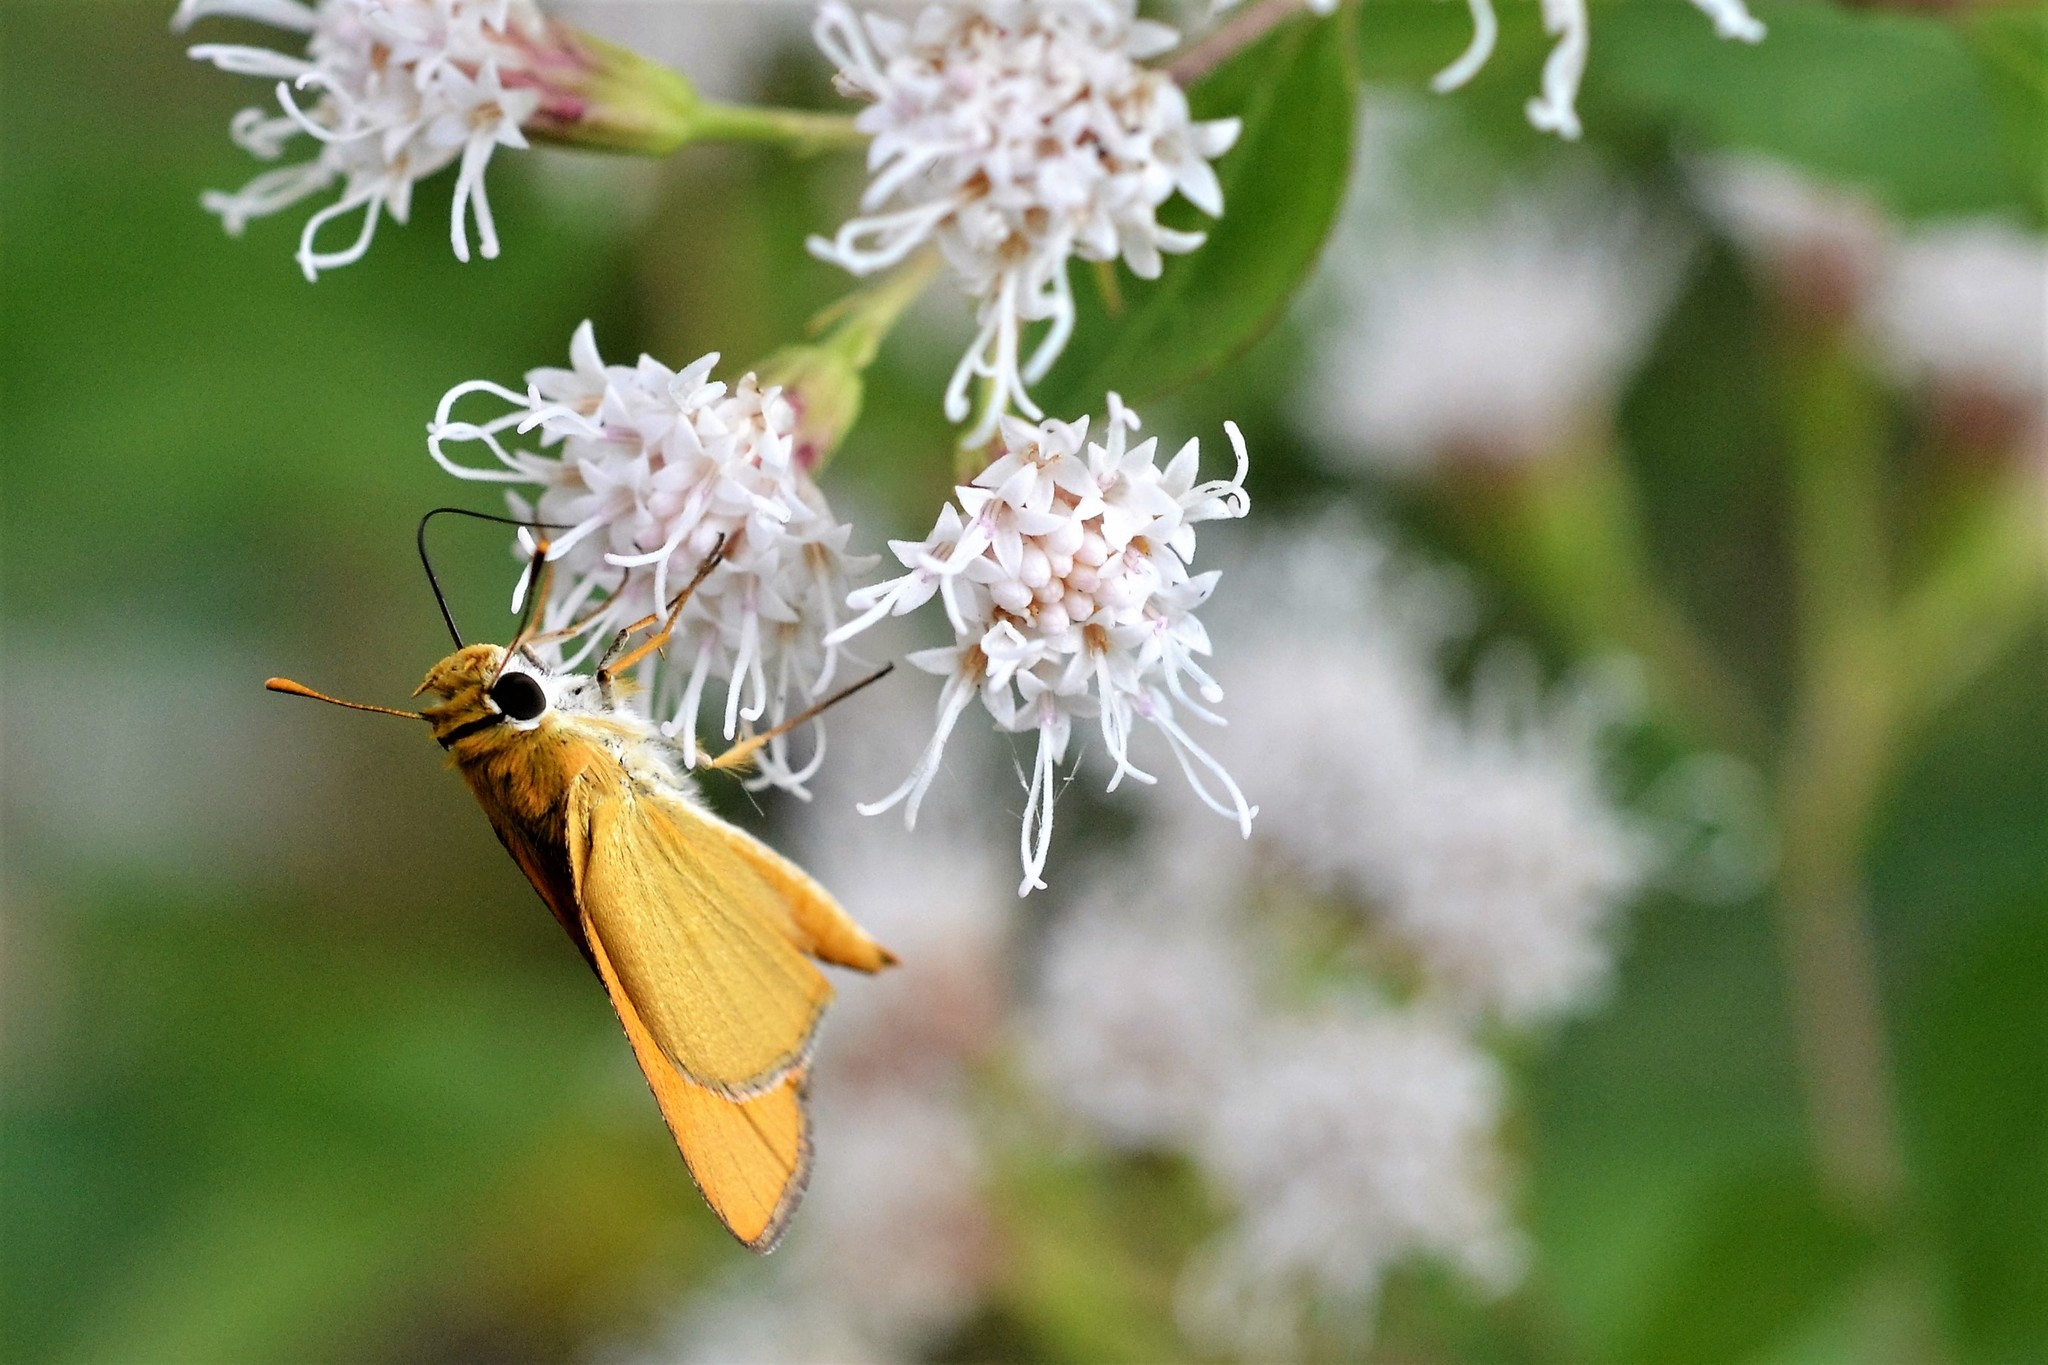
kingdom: Animalia
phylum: Arthropoda
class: Insecta
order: Lepidoptera
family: Hesperiidae
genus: Copaeodes
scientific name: Copaeodes aurantiaca
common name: Orange skipperling
